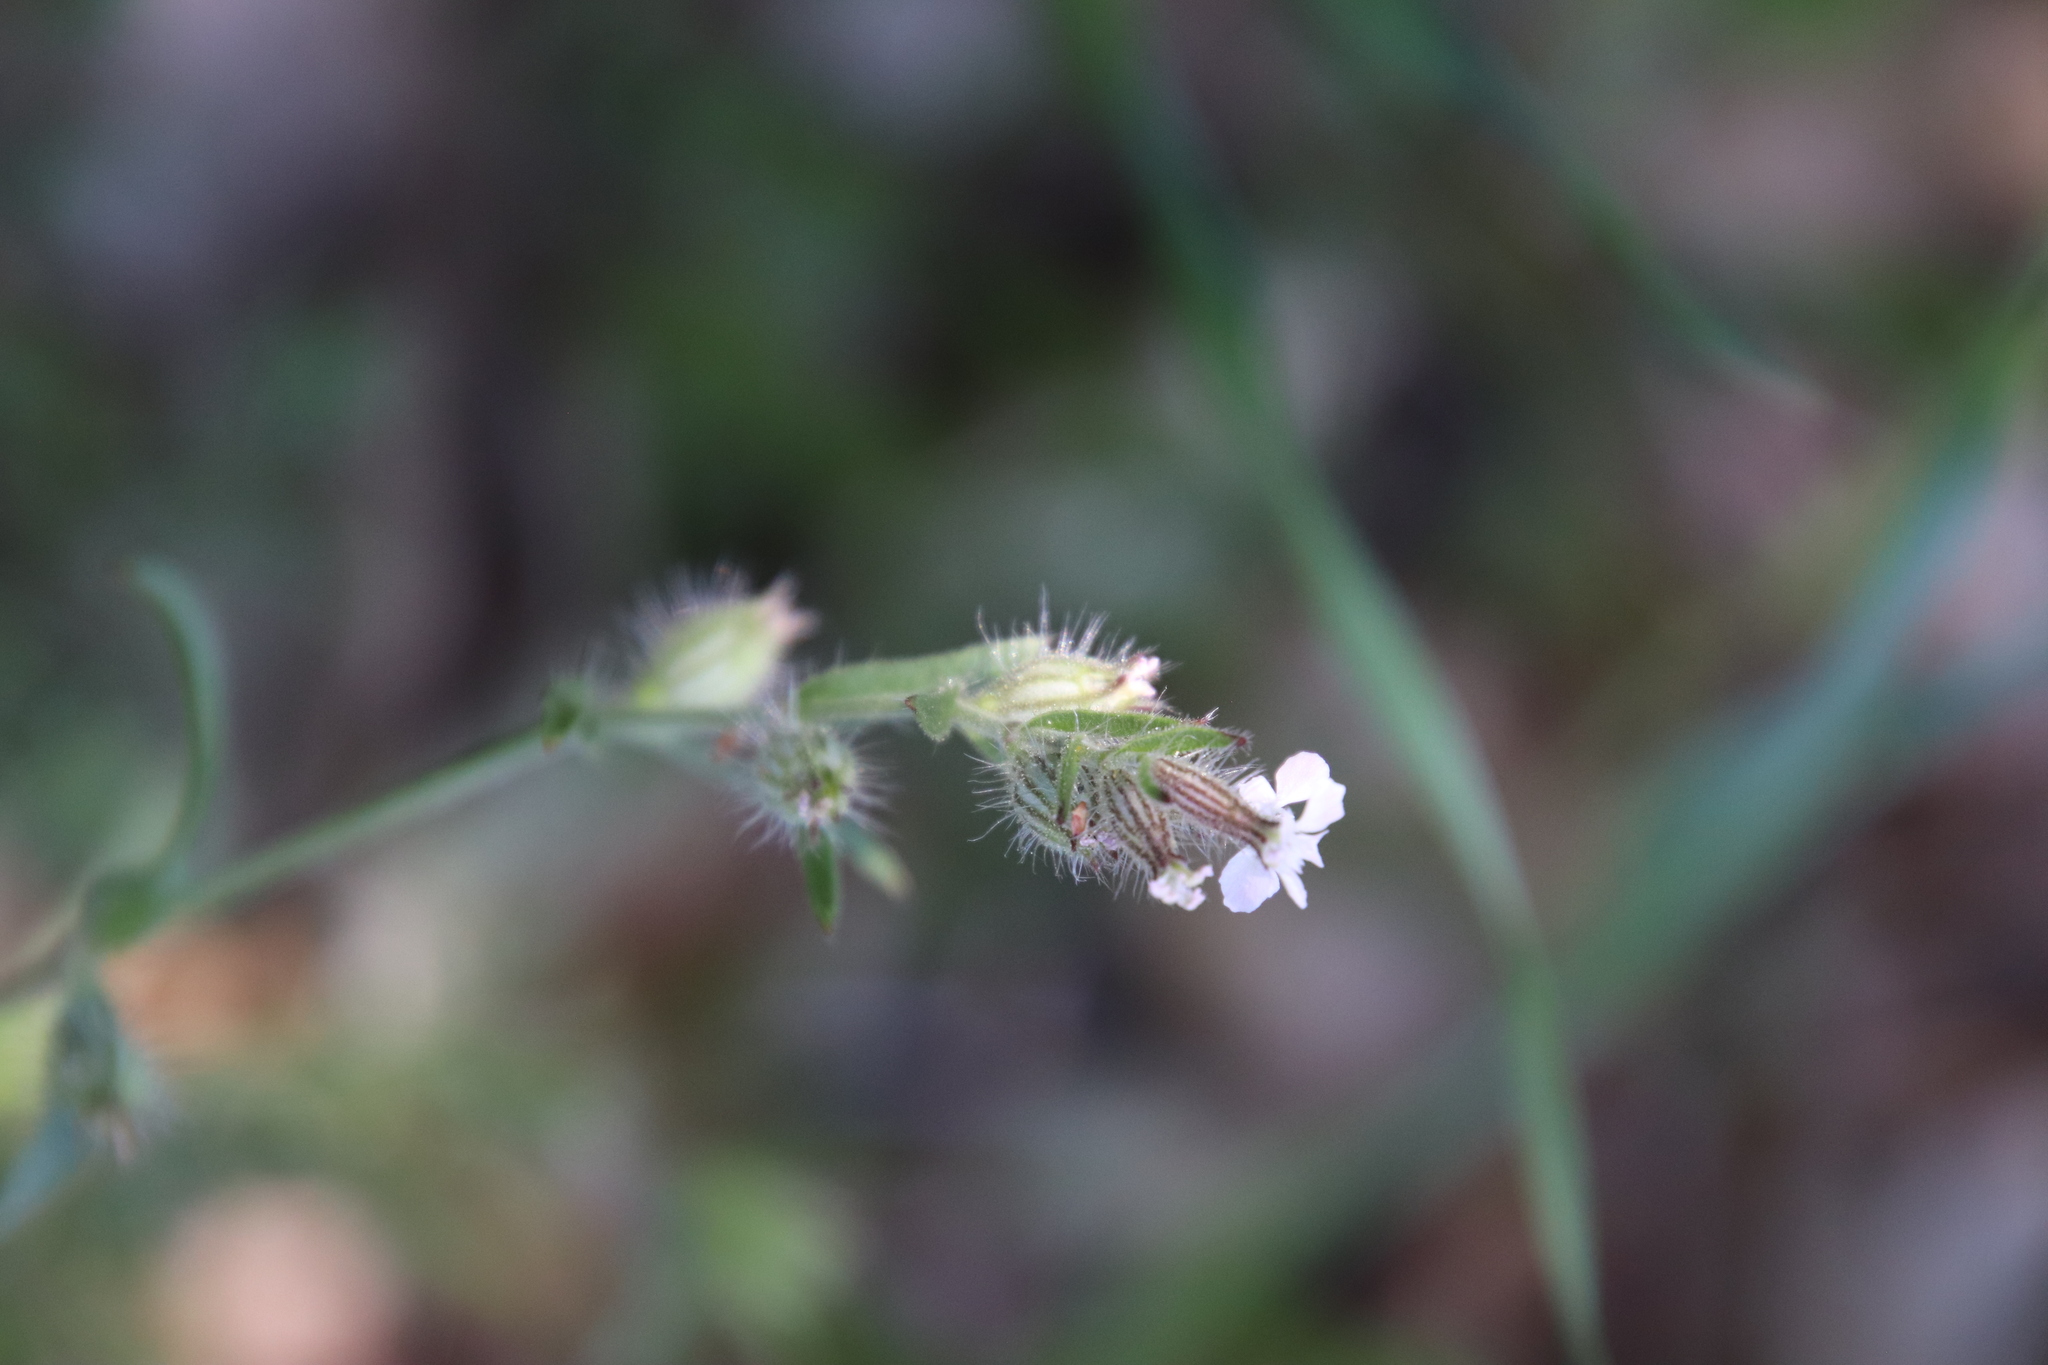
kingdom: Plantae
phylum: Tracheophyta
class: Magnoliopsida
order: Caryophyllales
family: Caryophyllaceae
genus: Silene
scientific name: Silene gallica
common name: Small-flowered catchfly
